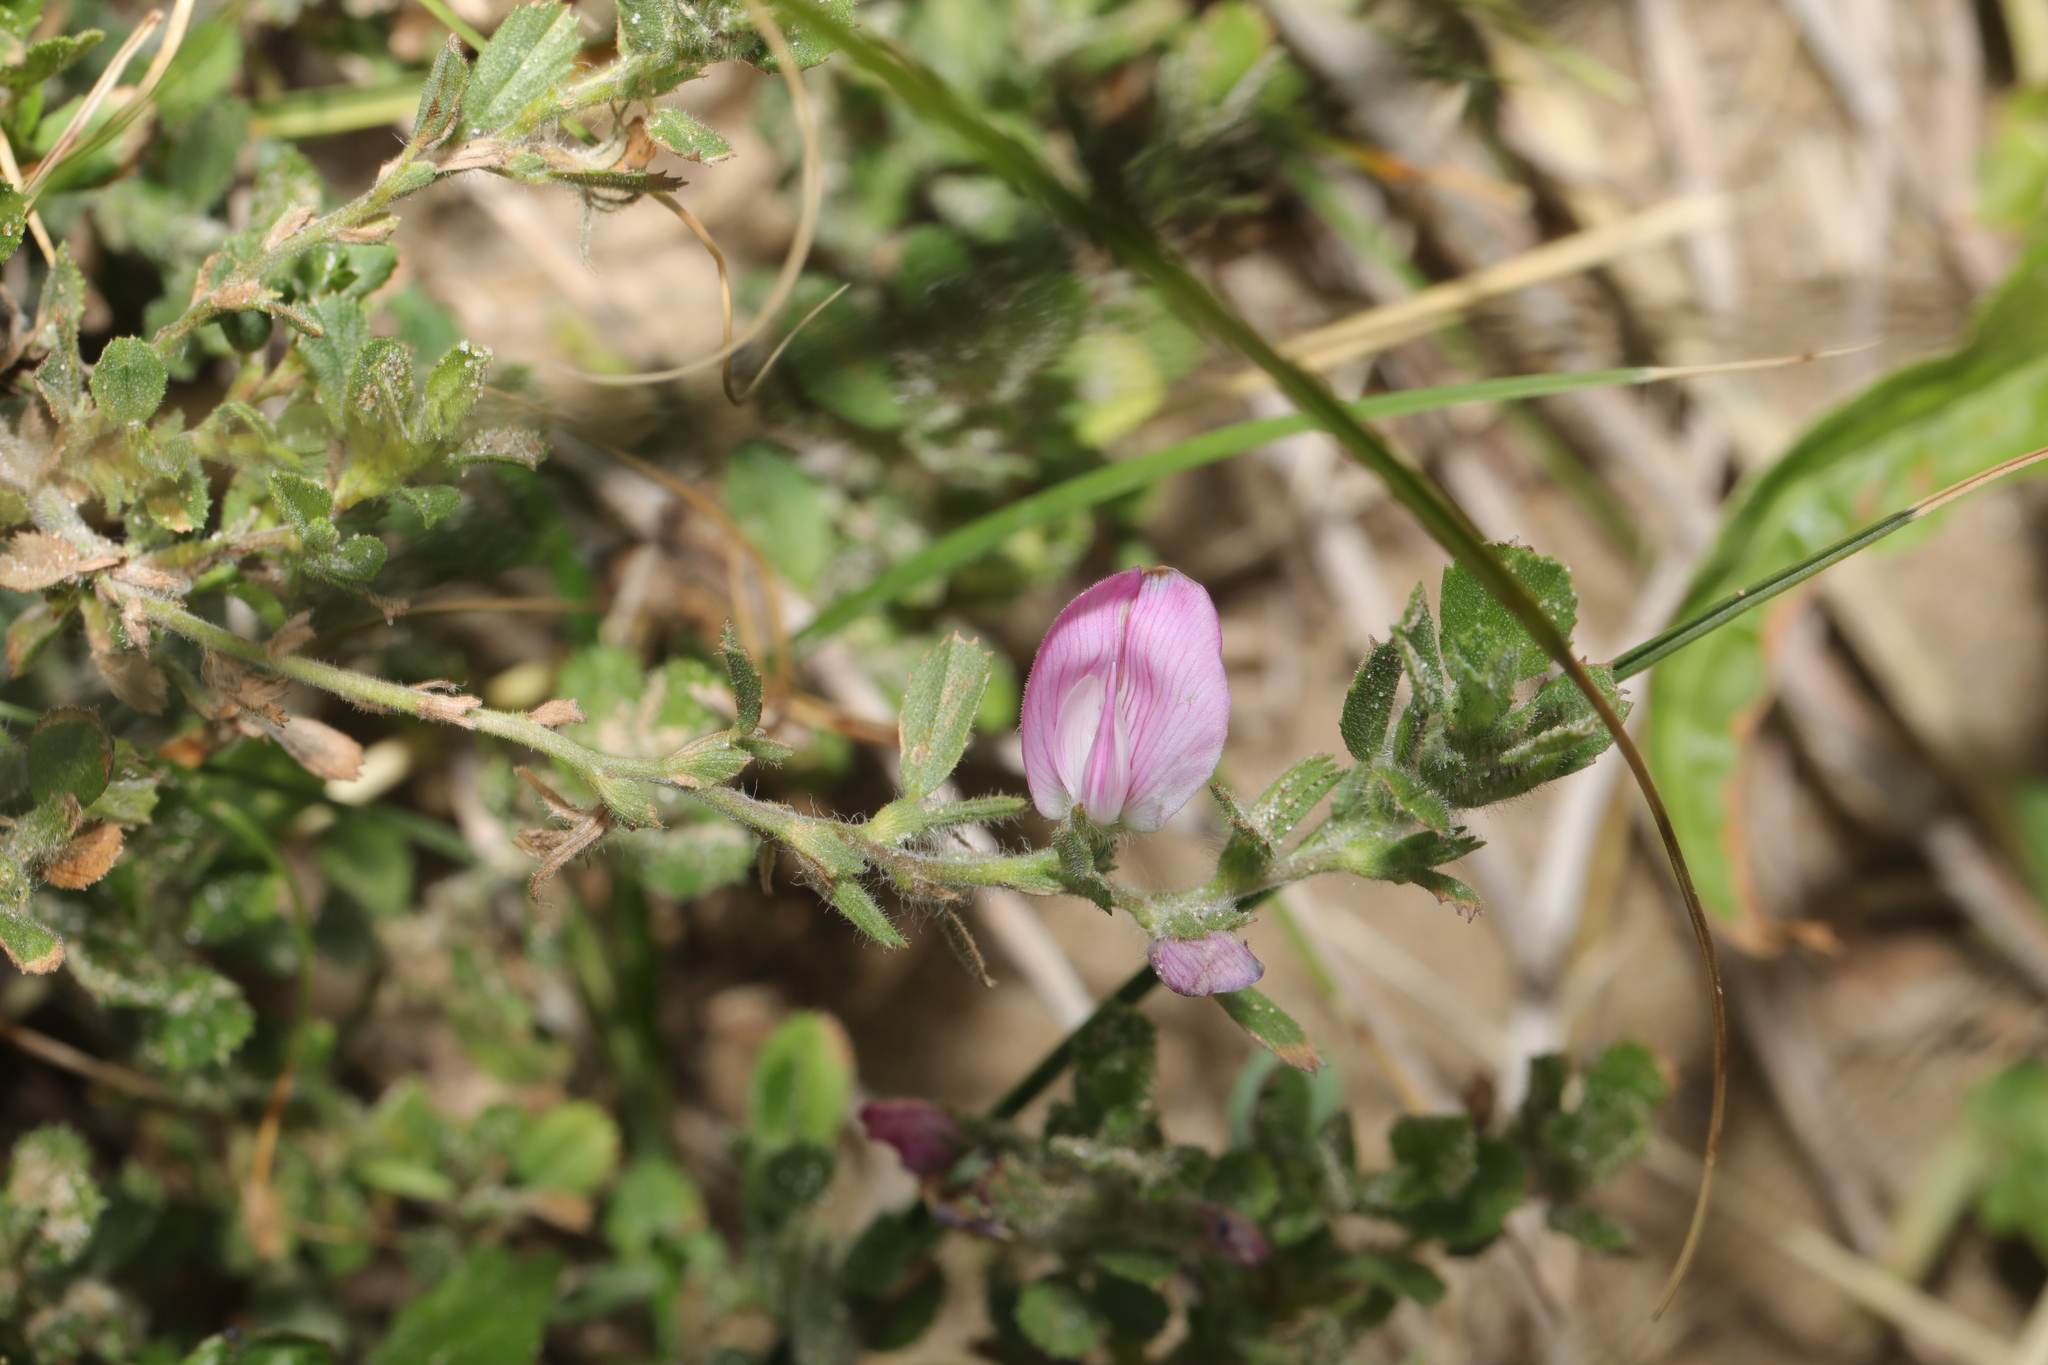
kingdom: Plantae
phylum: Tracheophyta
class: Magnoliopsida
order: Fabales
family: Fabaceae
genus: Ononis
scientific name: Ononis spinosa
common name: Spiny restharrow
